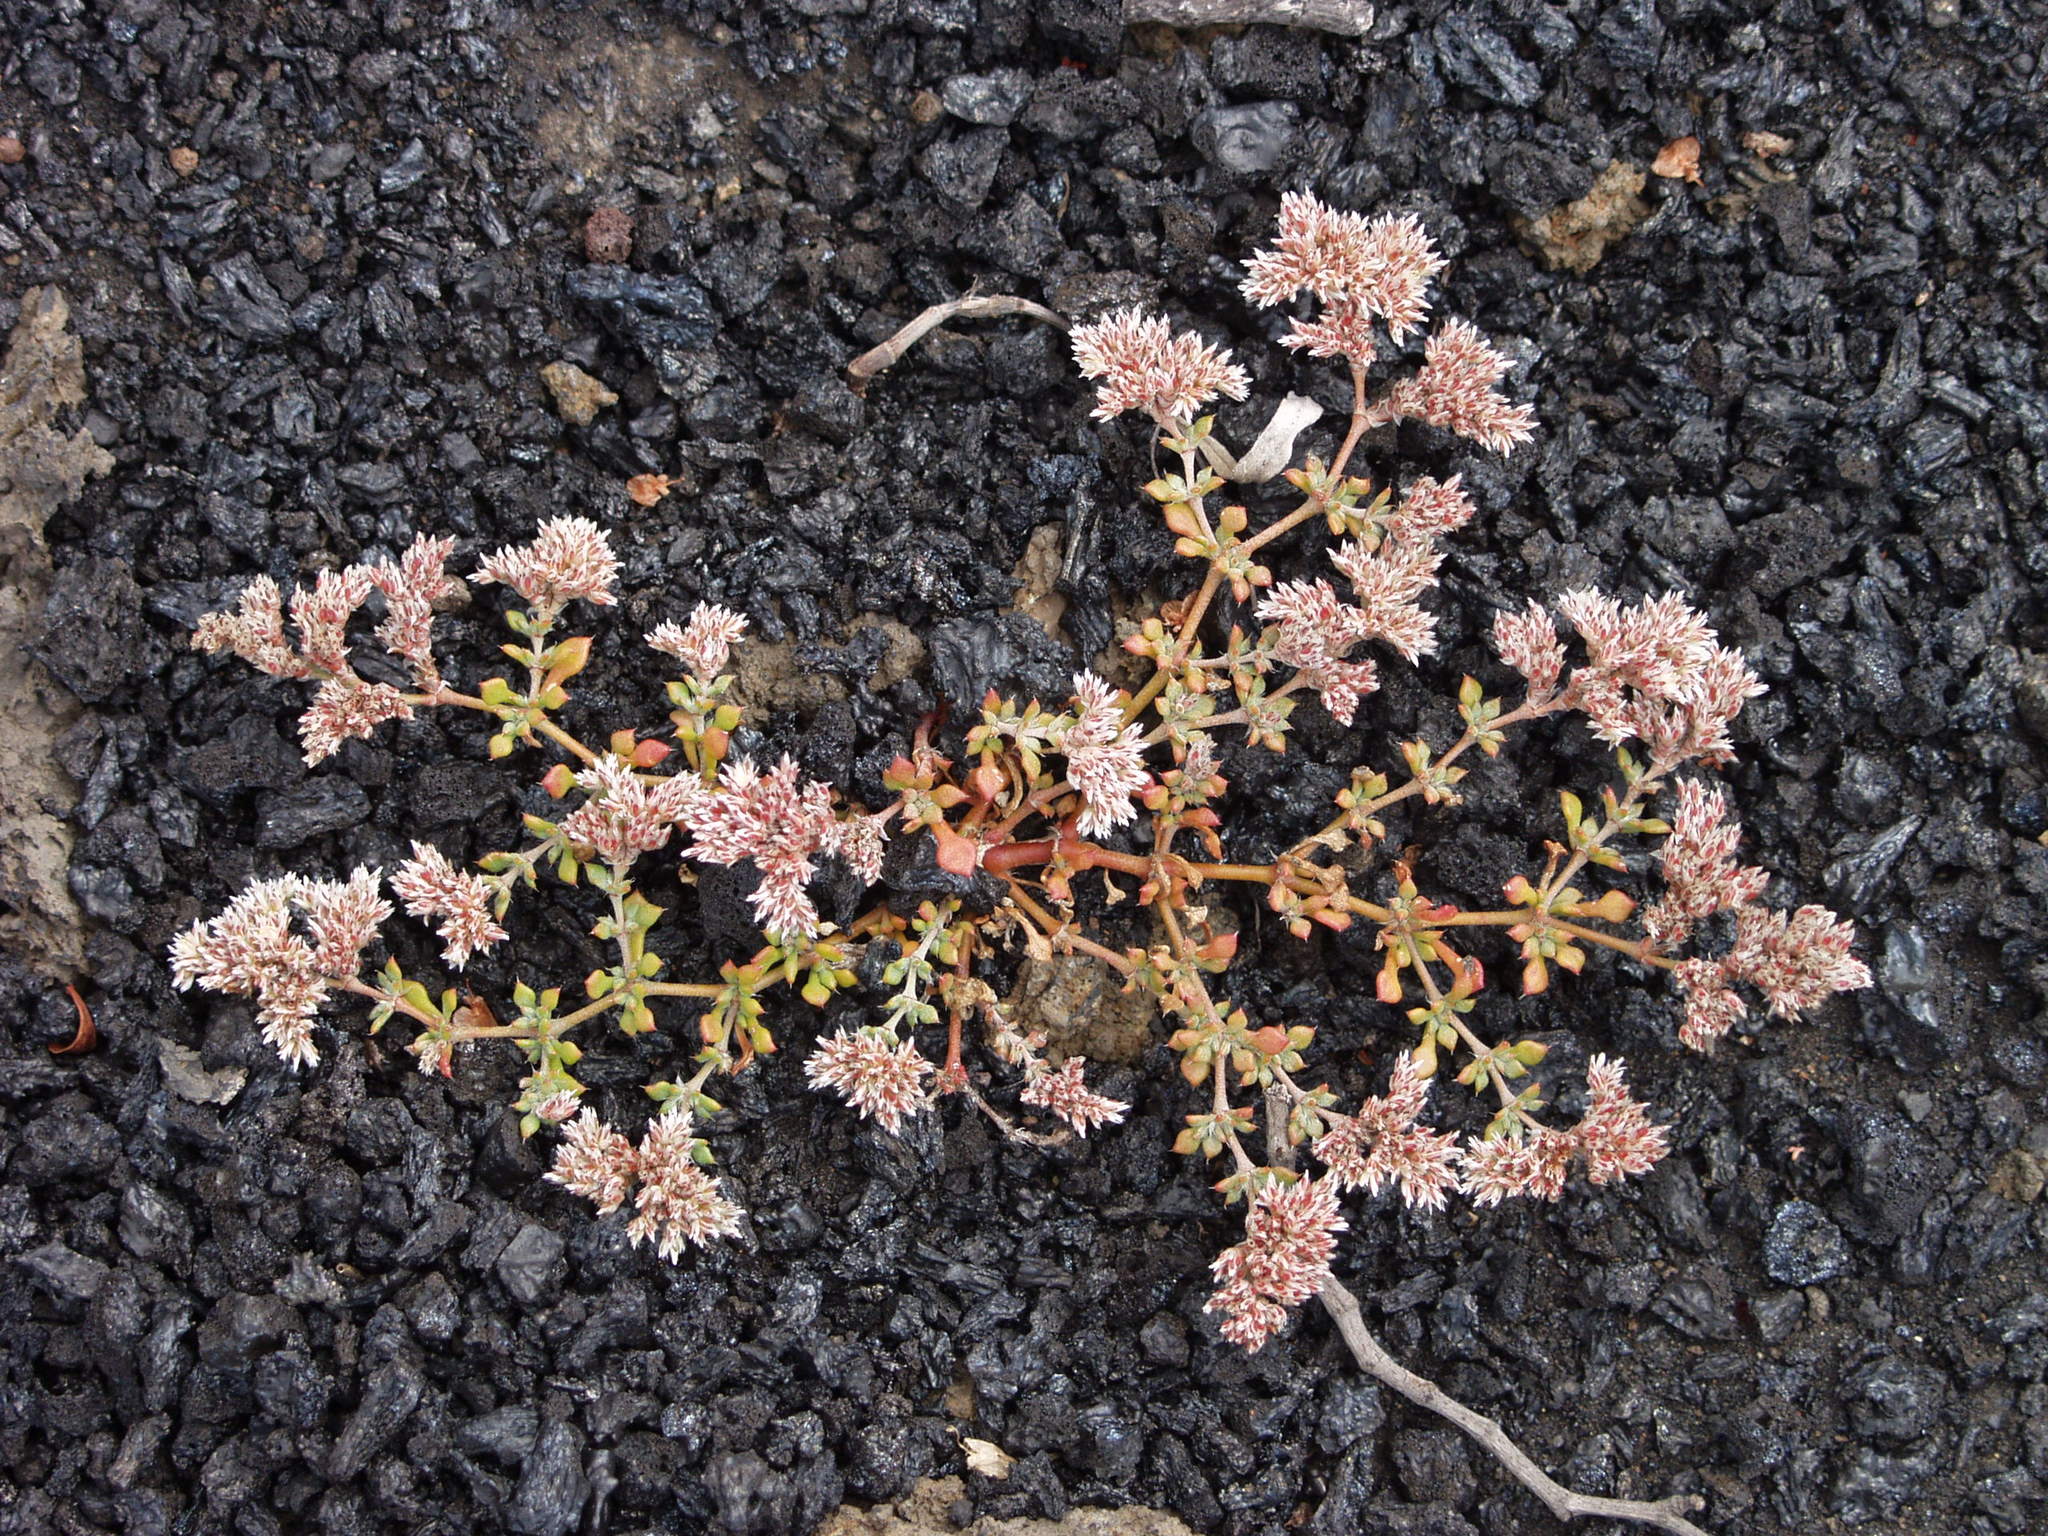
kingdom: Plantae
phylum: Tracheophyta
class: Magnoliopsida
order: Caryophyllales
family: Caryophyllaceae
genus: Polycarpaea
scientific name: Polycarpaea divaricata
